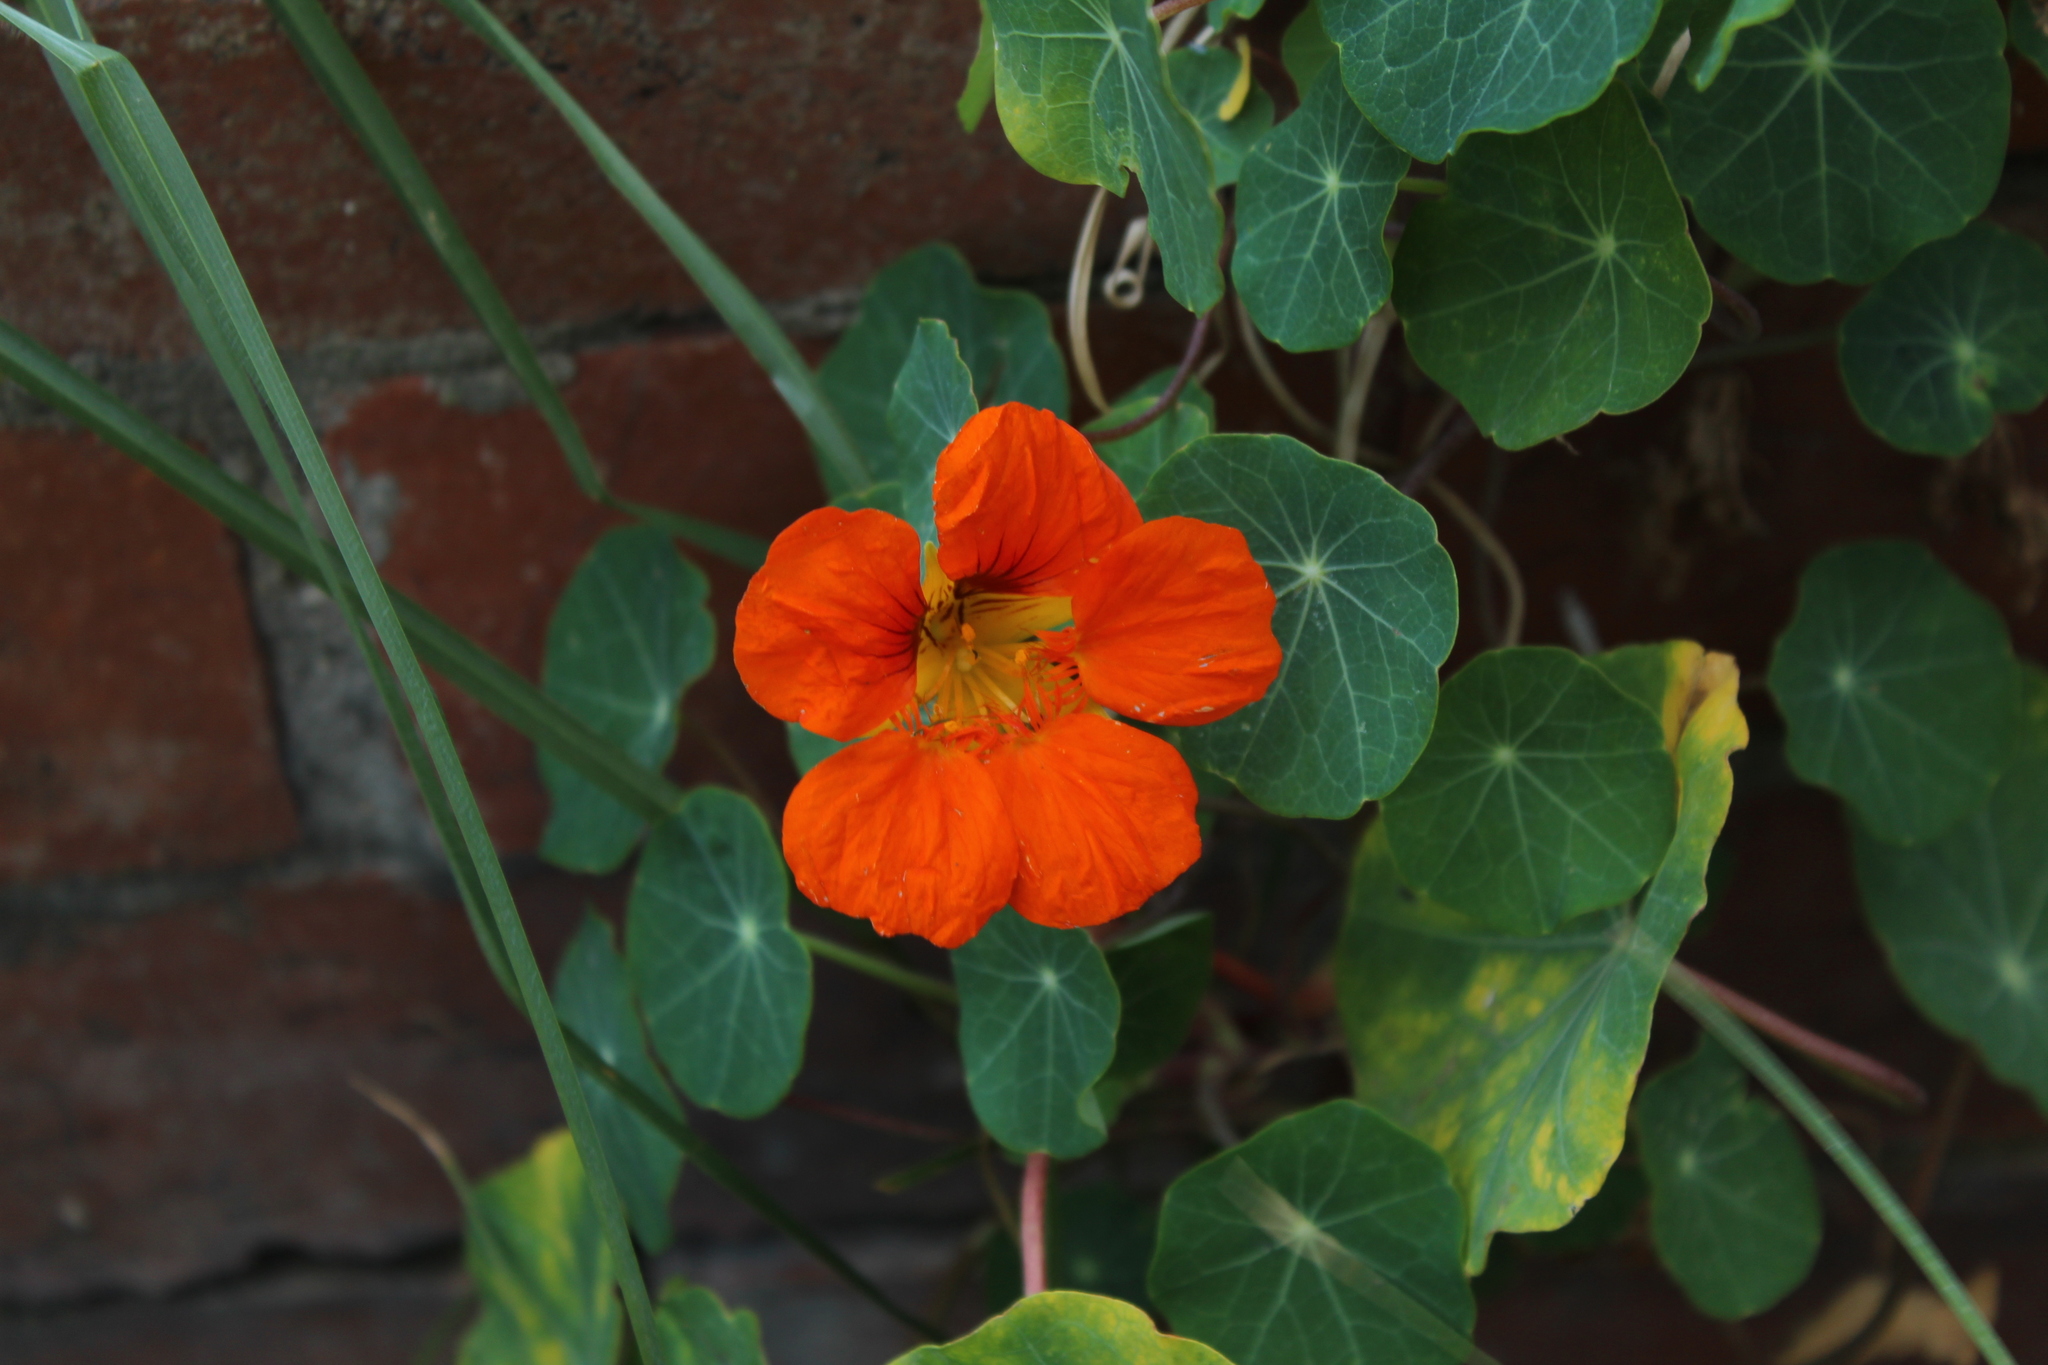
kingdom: Plantae
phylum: Tracheophyta
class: Magnoliopsida
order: Brassicales
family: Tropaeolaceae
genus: Tropaeolum
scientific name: Tropaeolum majus
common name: Nasturtium
